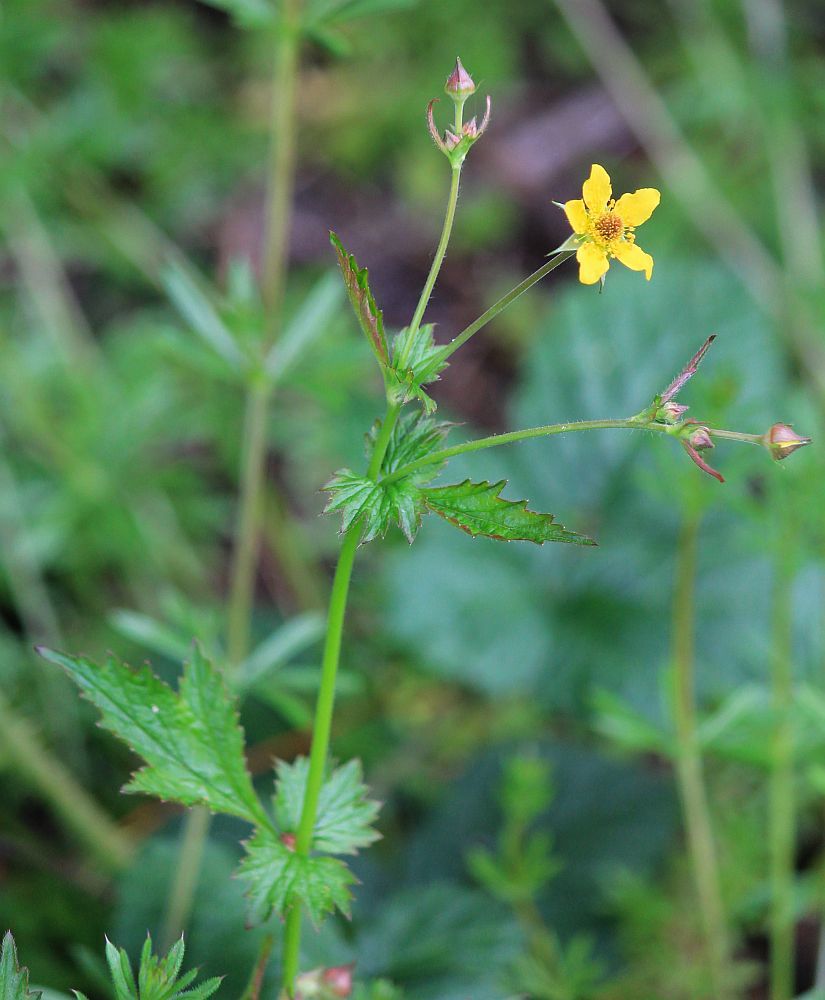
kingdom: Plantae
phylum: Tracheophyta
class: Magnoliopsida
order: Rosales
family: Rosaceae
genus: Geum
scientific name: Geum urbanum
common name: Wood avens
